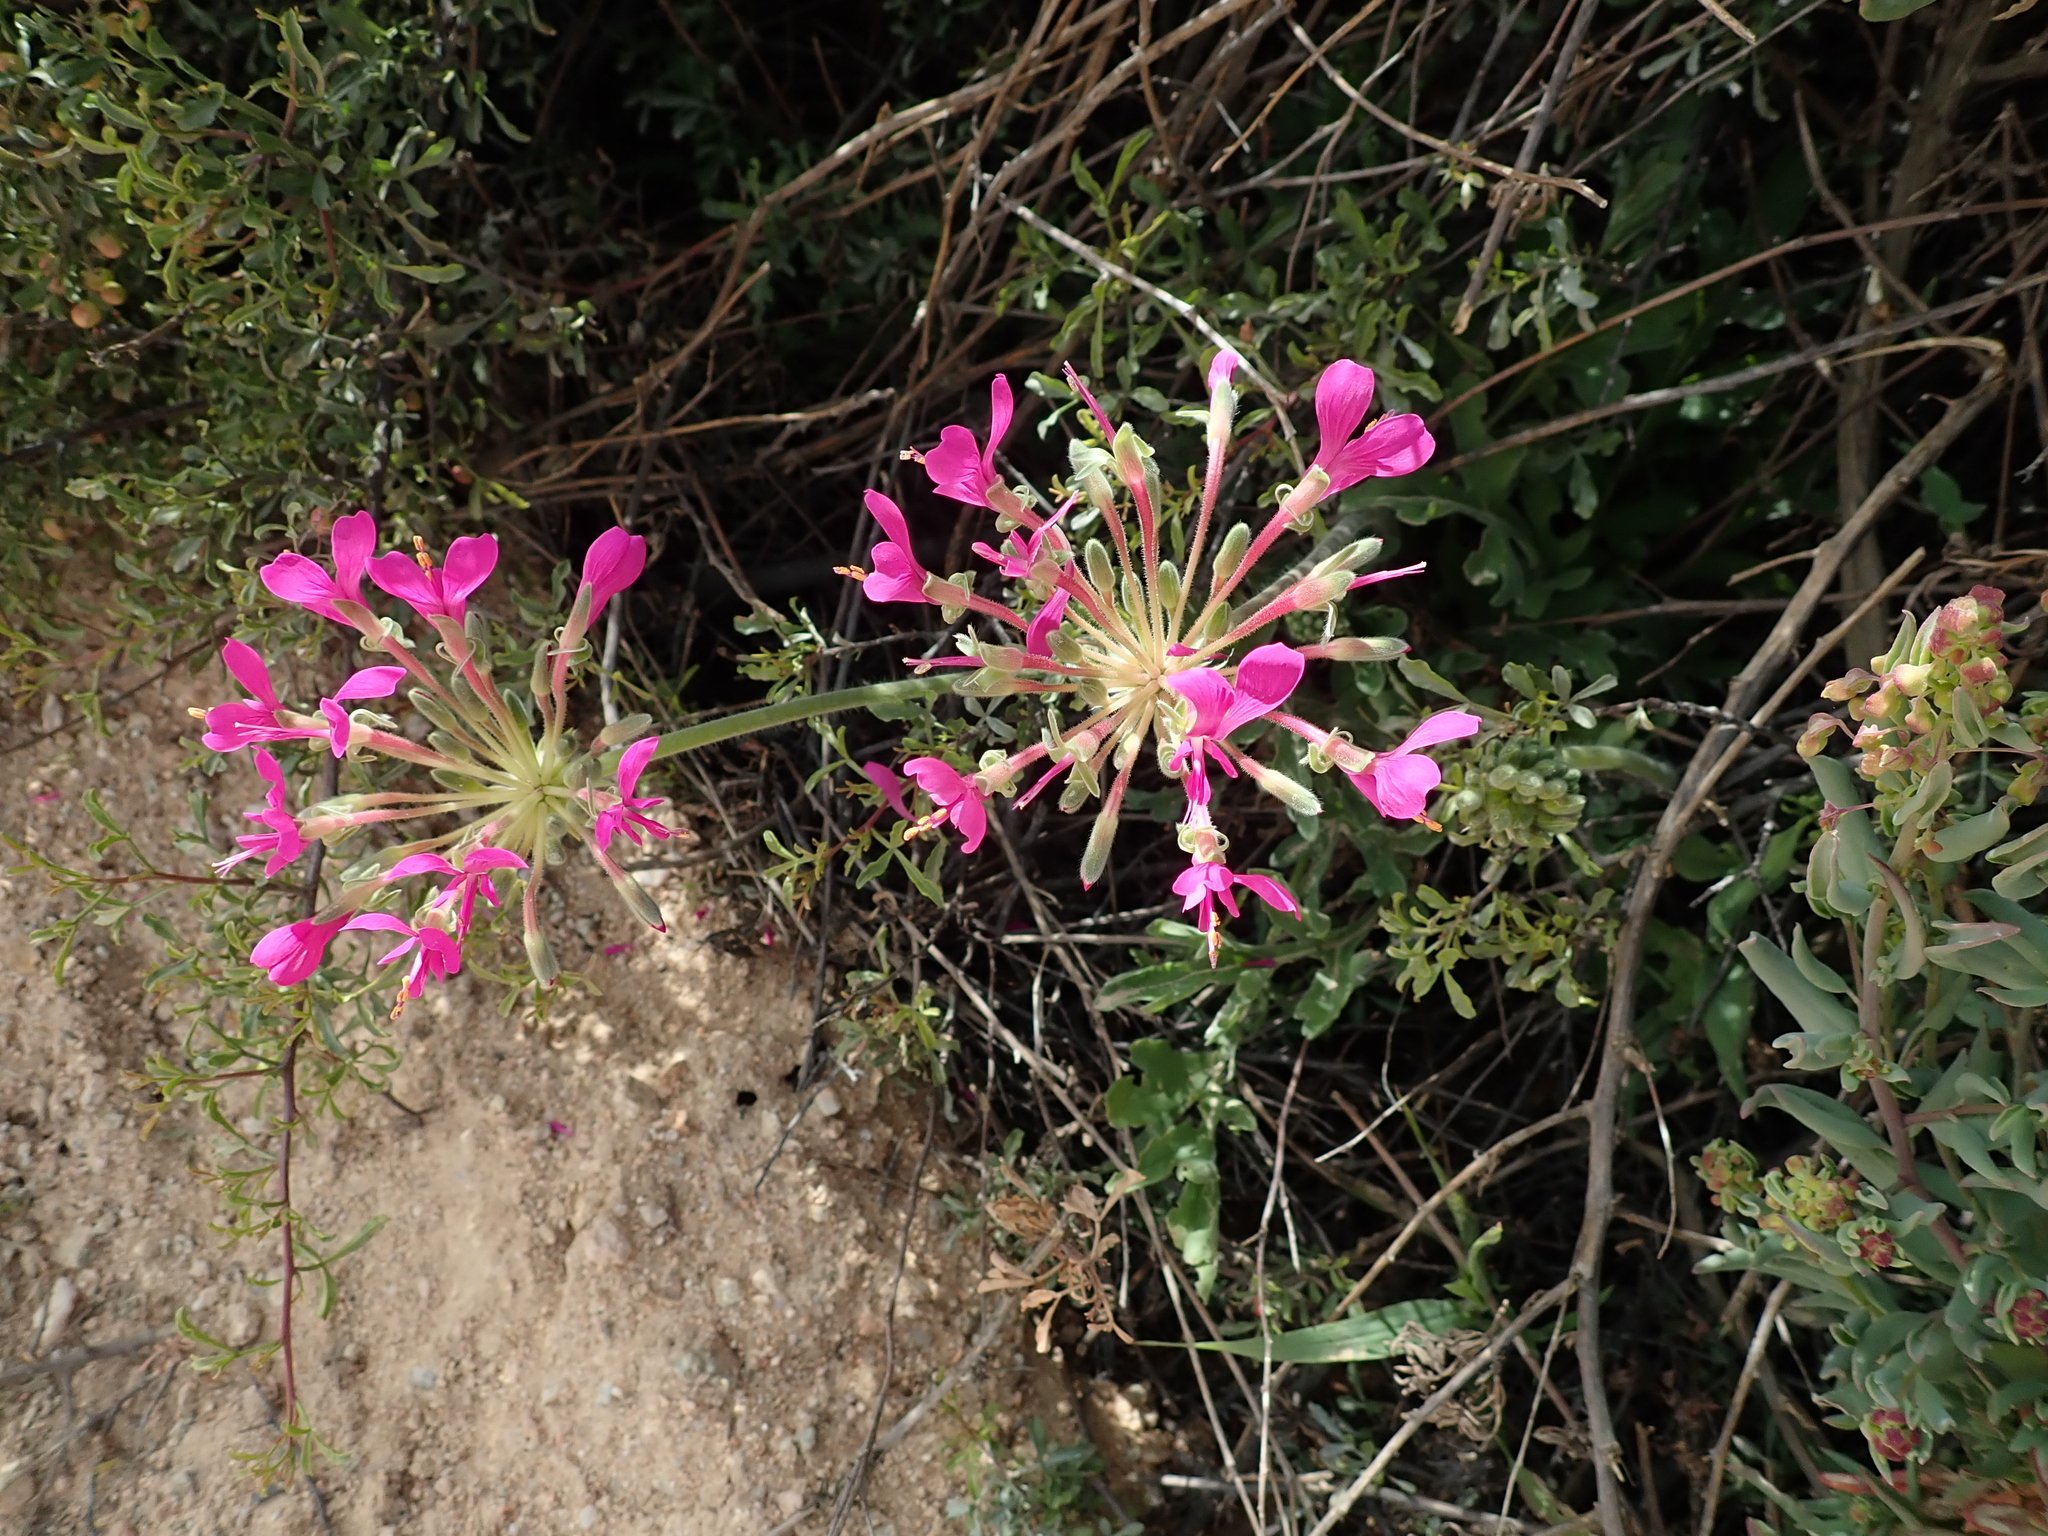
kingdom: Plantae
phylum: Tracheophyta
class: Magnoliopsida
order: Geraniales
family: Geraniaceae
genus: Pelargonium
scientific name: Pelargonium incrassatum
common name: Namaqualand beauty
